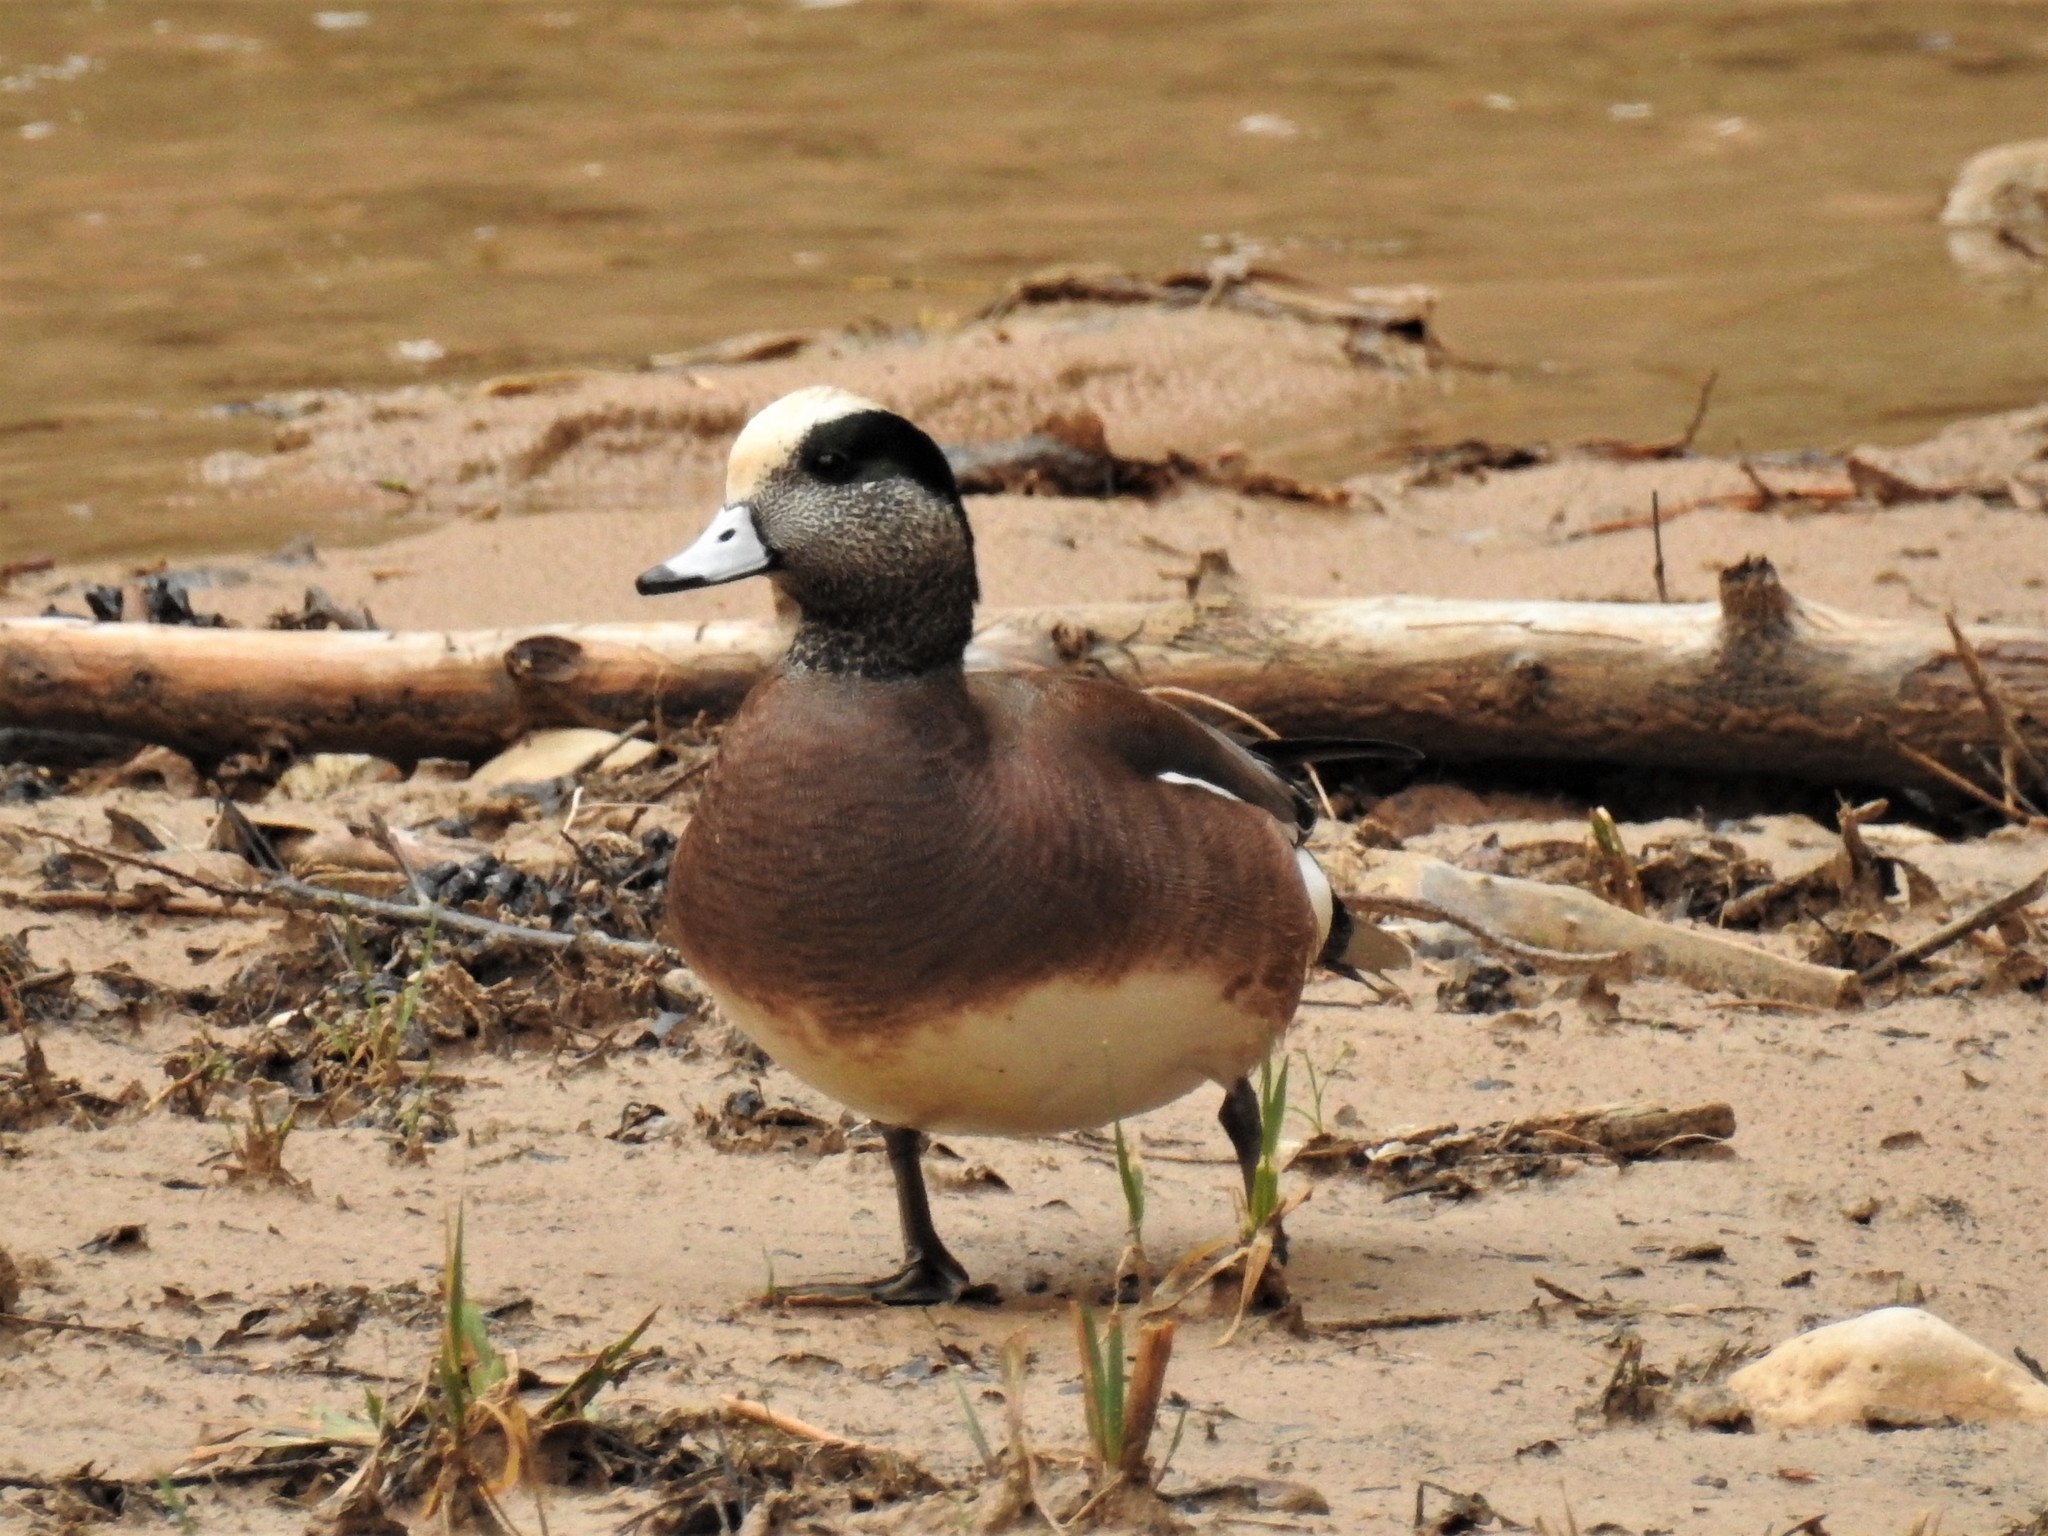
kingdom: Animalia
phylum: Chordata
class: Aves
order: Anseriformes
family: Anatidae
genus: Mareca
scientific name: Mareca americana
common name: American wigeon
